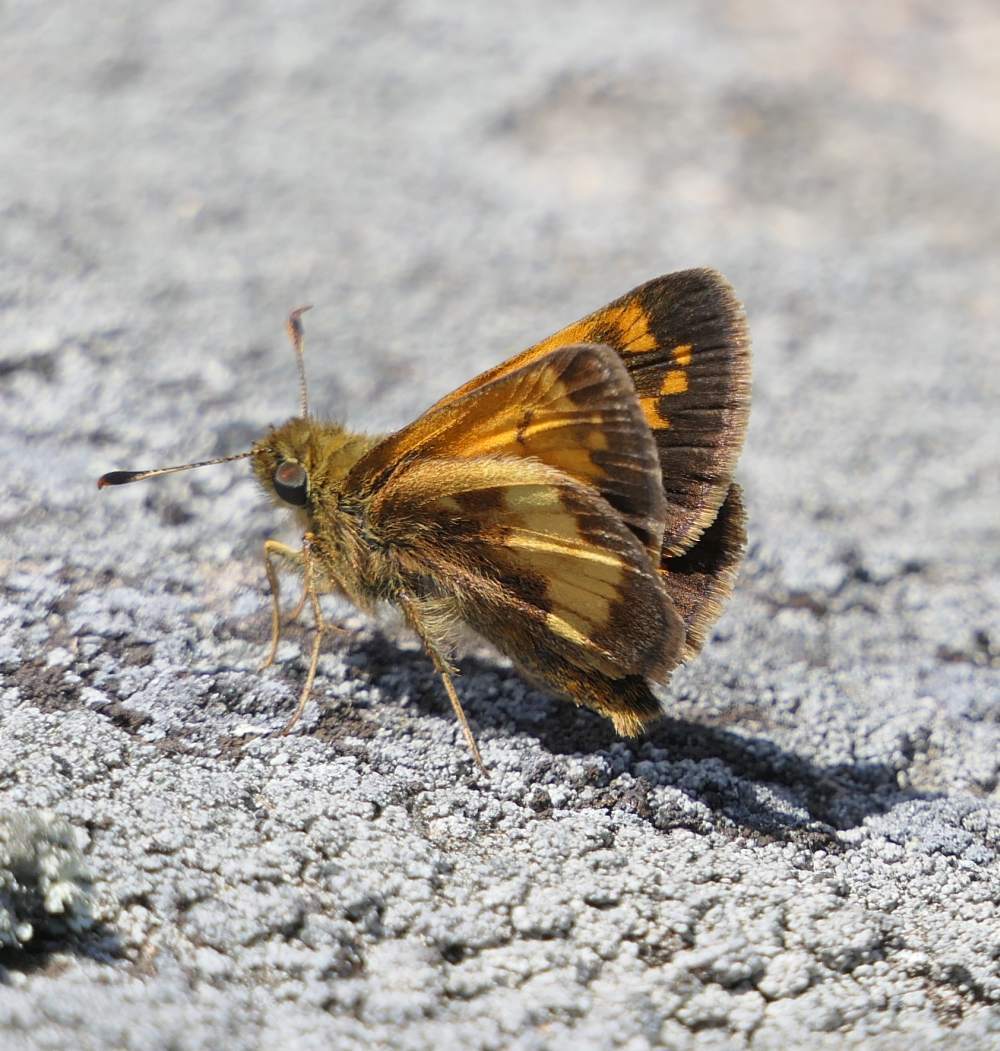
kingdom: Animalia
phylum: Arthropoda
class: Insecta
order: Lepidoptera
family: Hesperiidae
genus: Lon
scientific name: Lon hobomok
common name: Hobomok skipper
